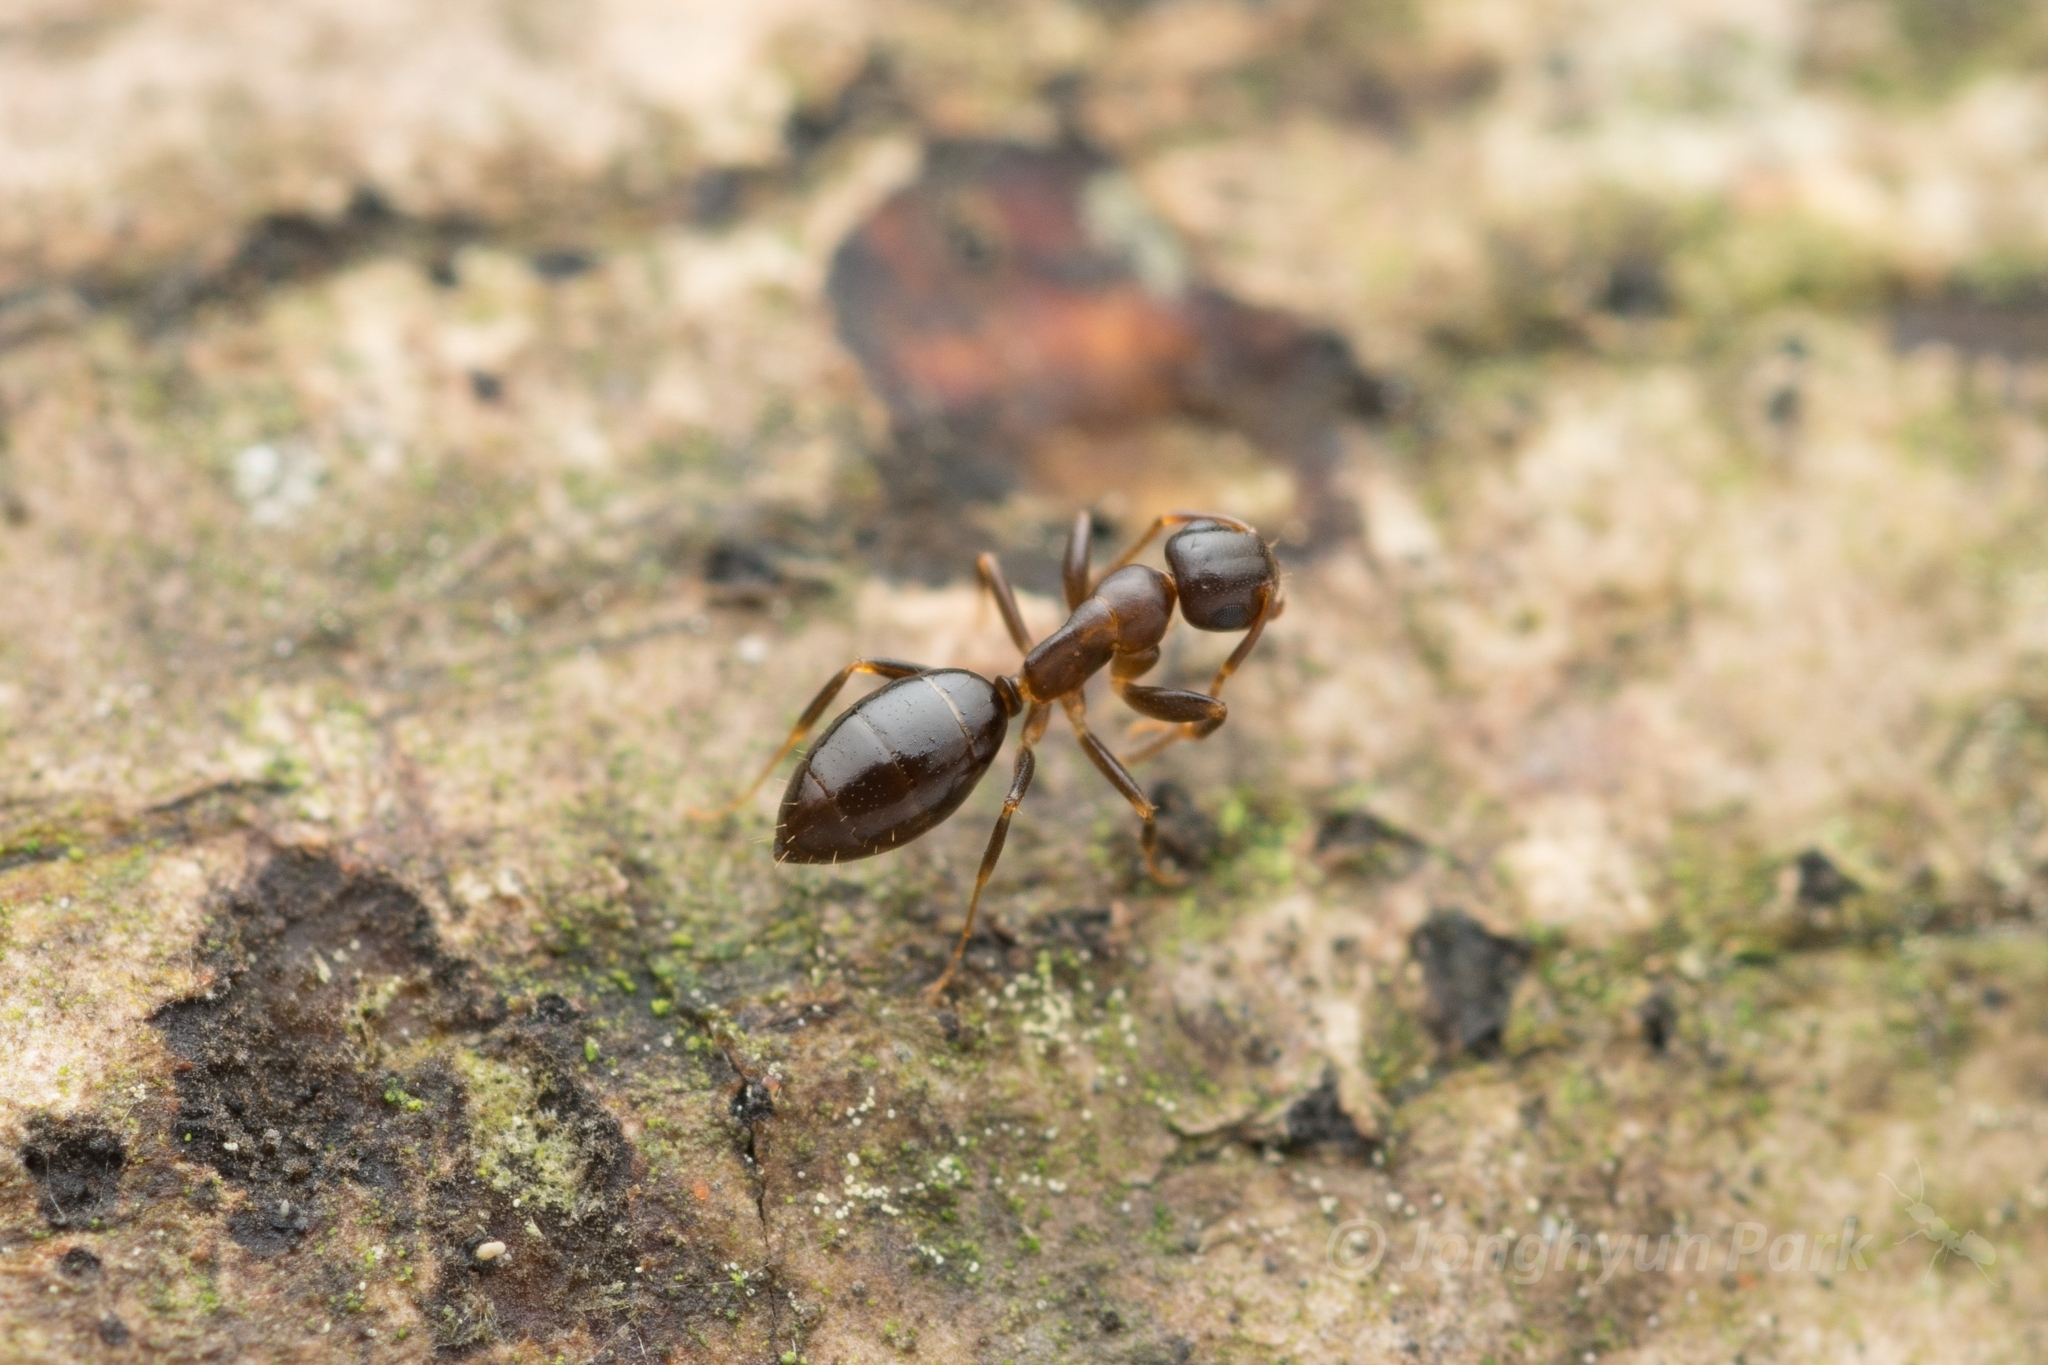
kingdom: Animalia
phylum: Arthropoda
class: Insecta
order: Hymenoptera
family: Formicidae
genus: Colobopsis
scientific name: Colobopsis
